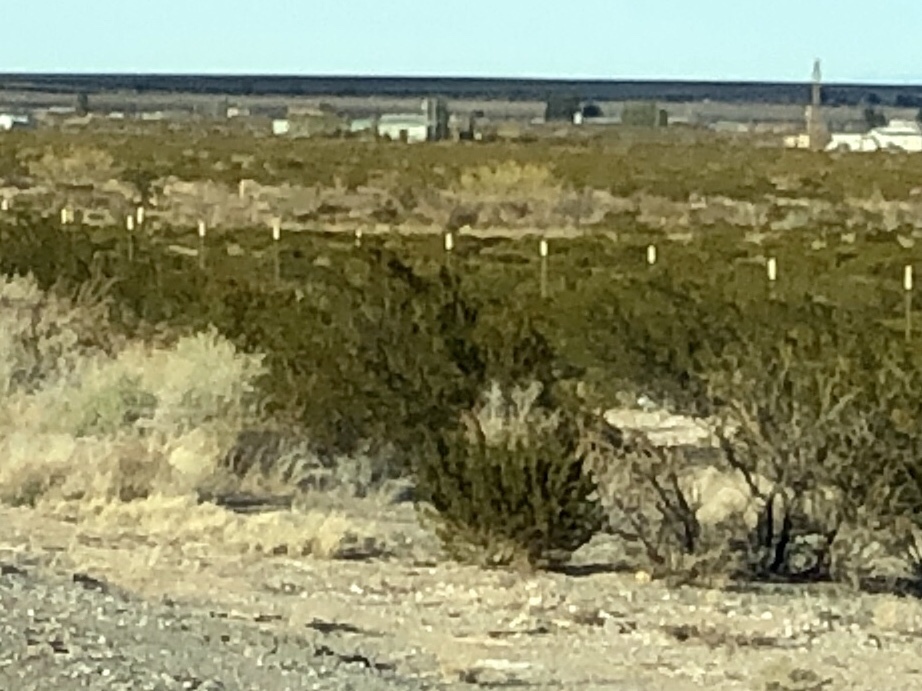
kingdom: Plantae
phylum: Tracheophyta
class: Magnoliopsida
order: Zygophyllales
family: Zygophyllaceae
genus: Larrea
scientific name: Larrea tridentata
